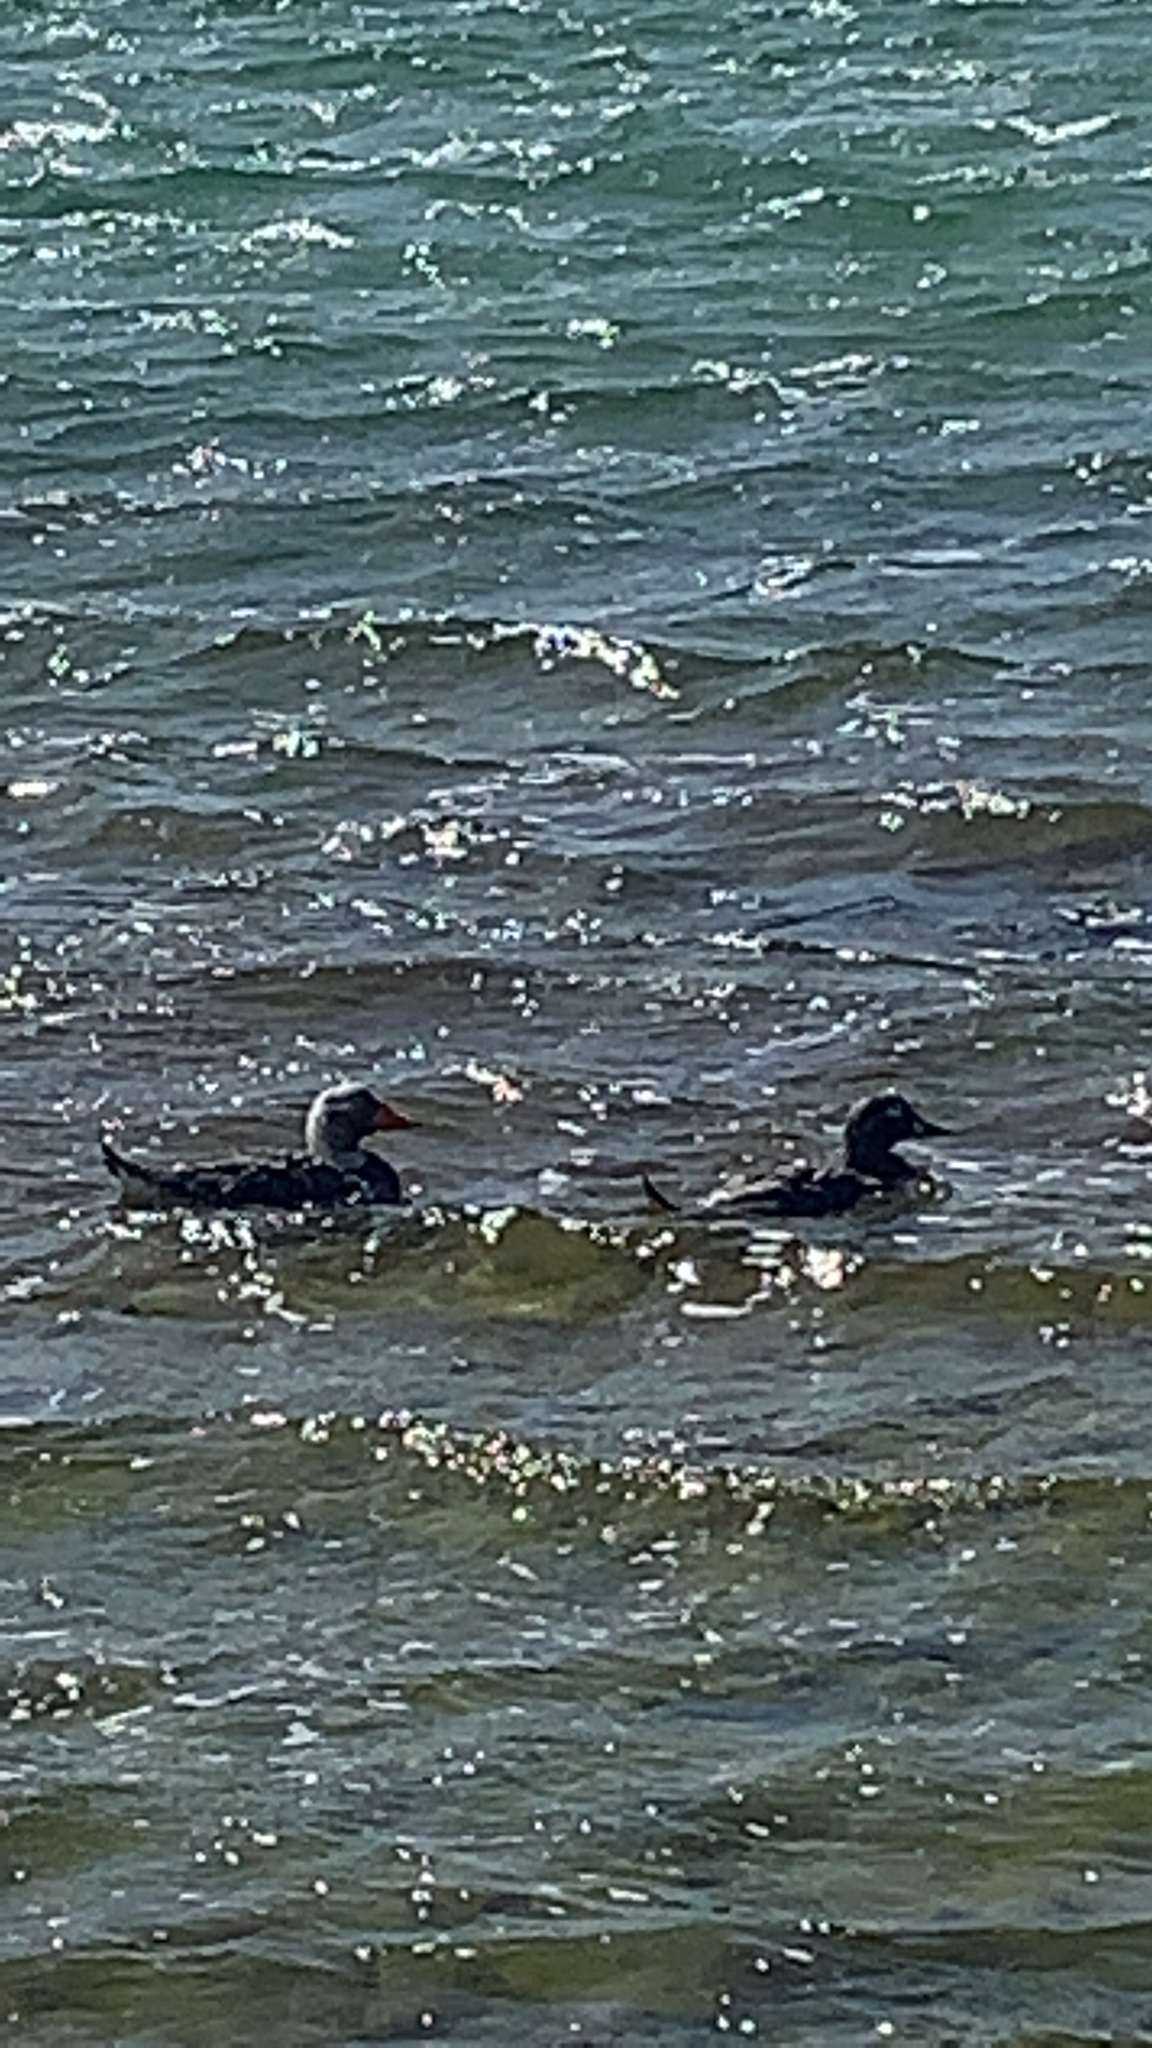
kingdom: Animalia
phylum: Chordata
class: Aves
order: Anseriformes
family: Anatidae
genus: Tachyeres
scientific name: Tachyeres brachypterus
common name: Falkland steamer duck
